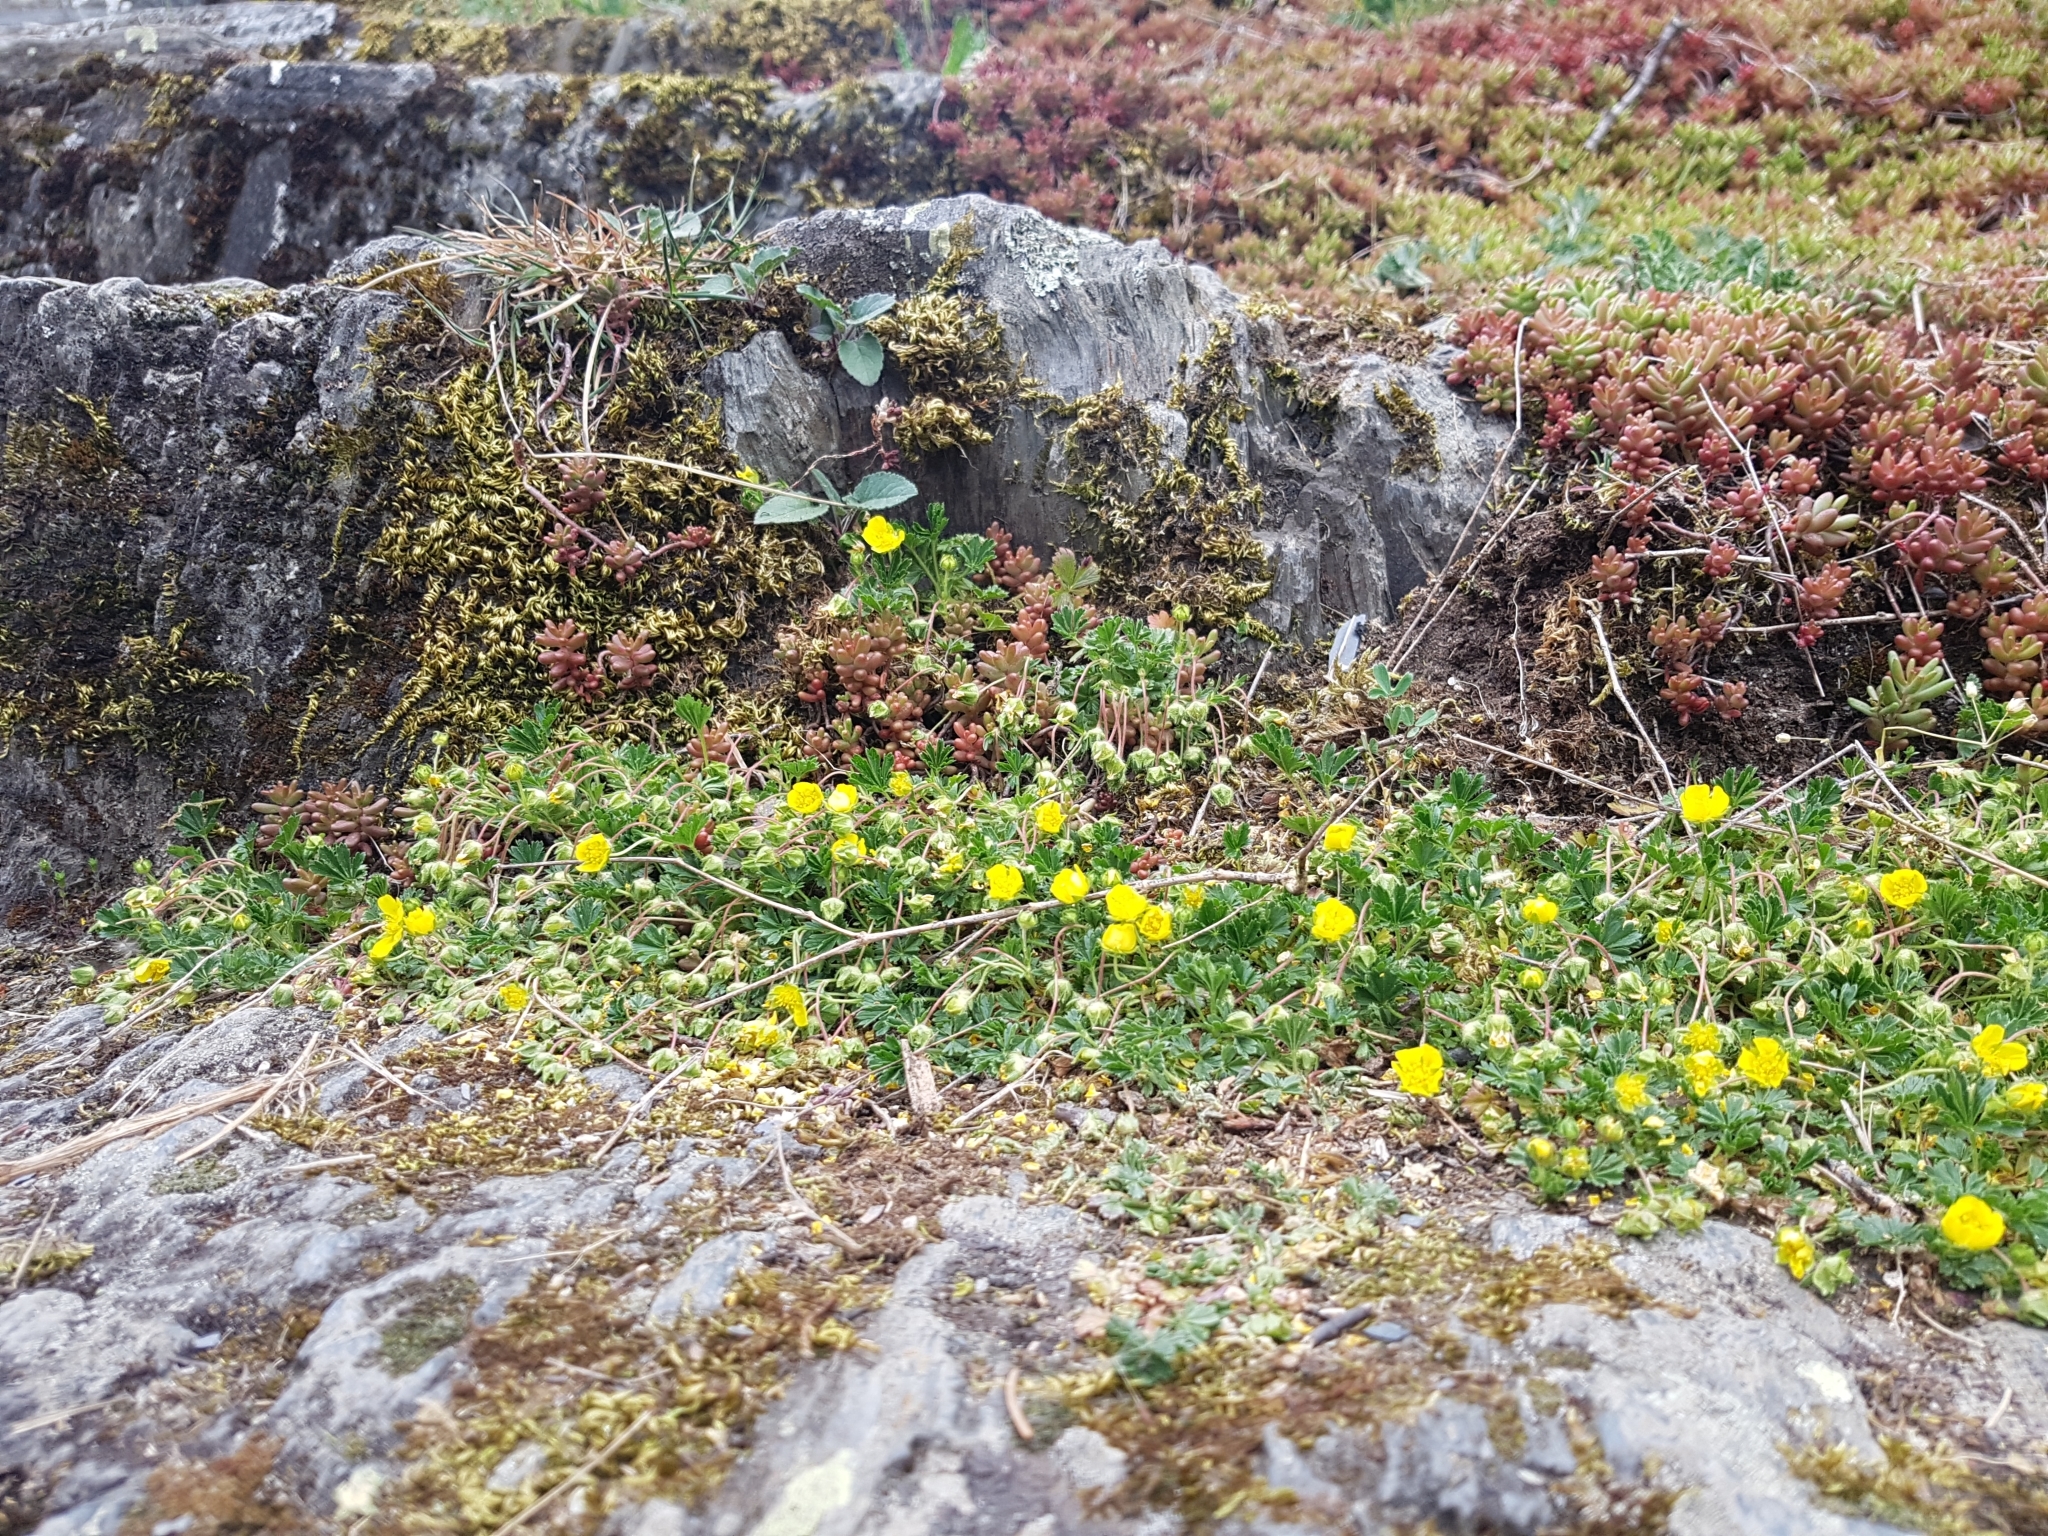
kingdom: Plantae
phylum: Tracheophyta
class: Magnoliopsida
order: Rosales
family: Rosaceae
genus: Potentilla
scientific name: Potentilla verna
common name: Spring cinquefoil
